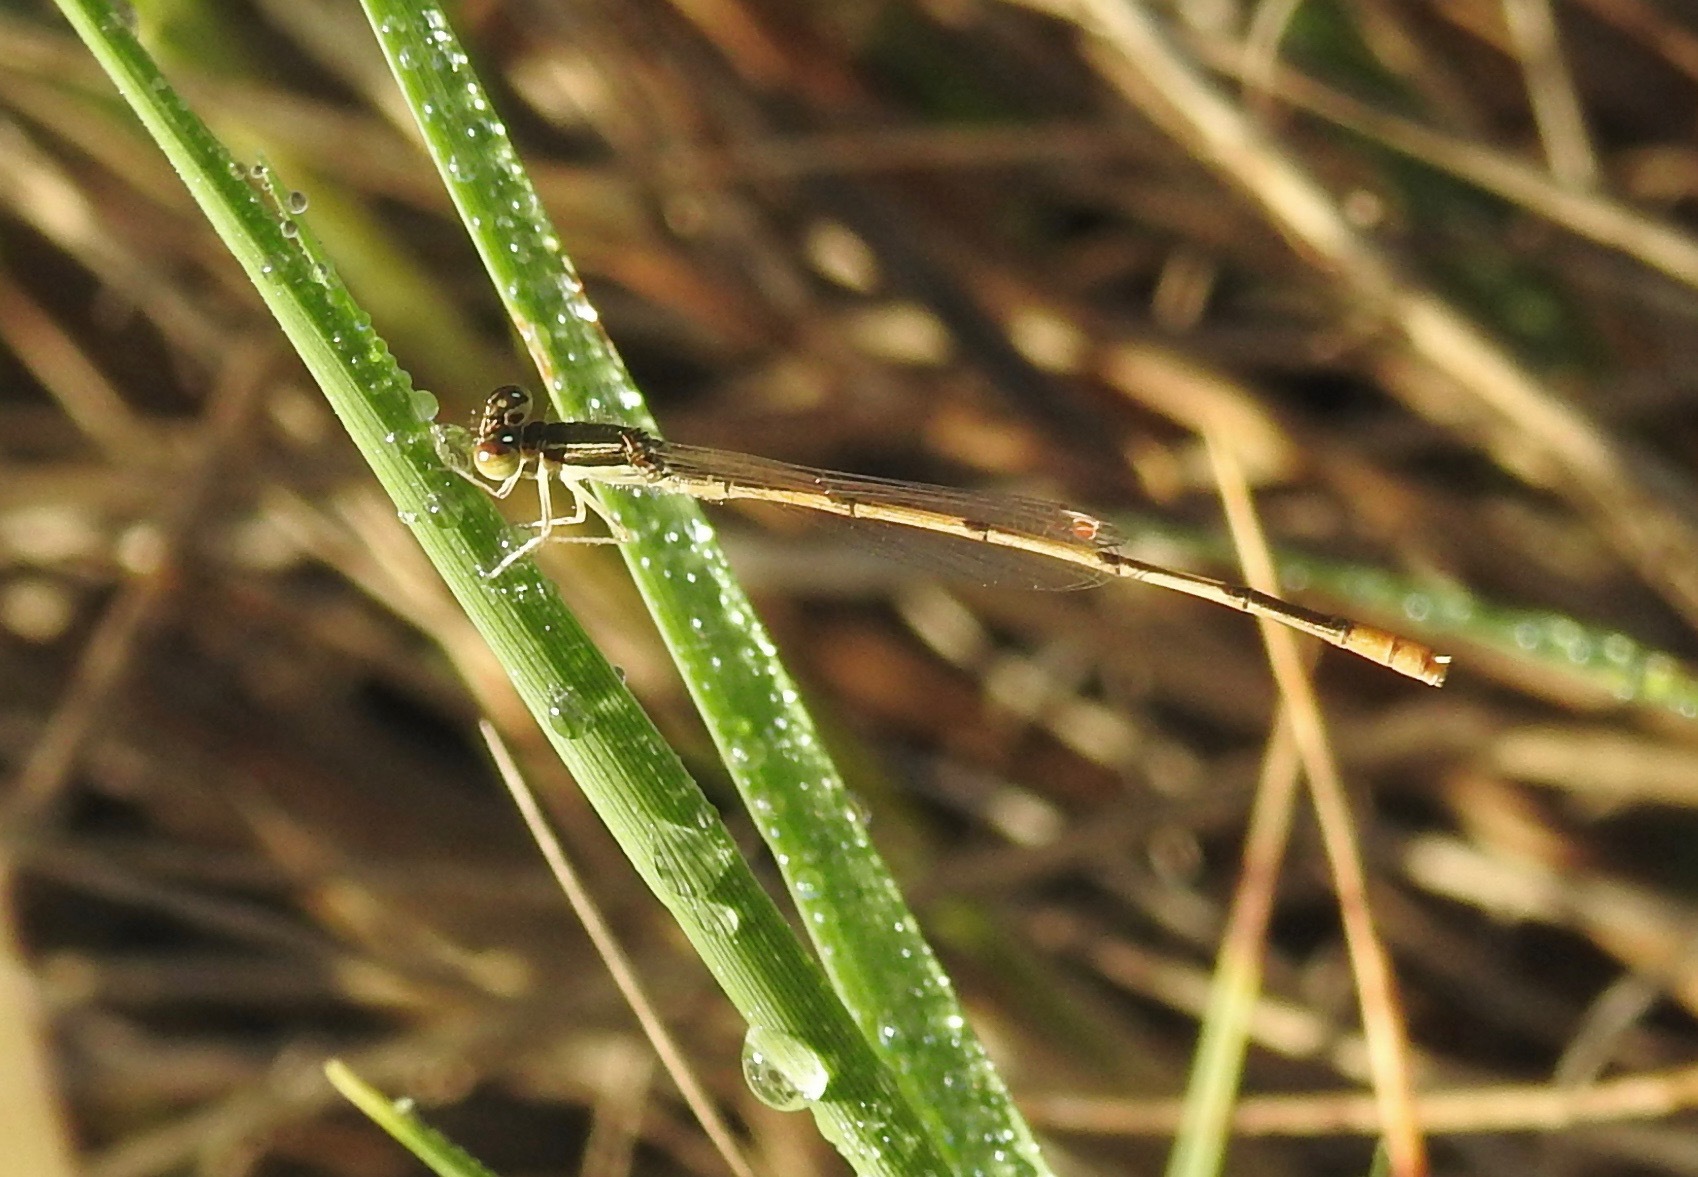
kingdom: Animalia
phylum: Arthropoda
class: Insecta
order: Odonata
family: Coenagrionidae
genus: Ischnura
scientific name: Ischnura hastata
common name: Citrine forktail
